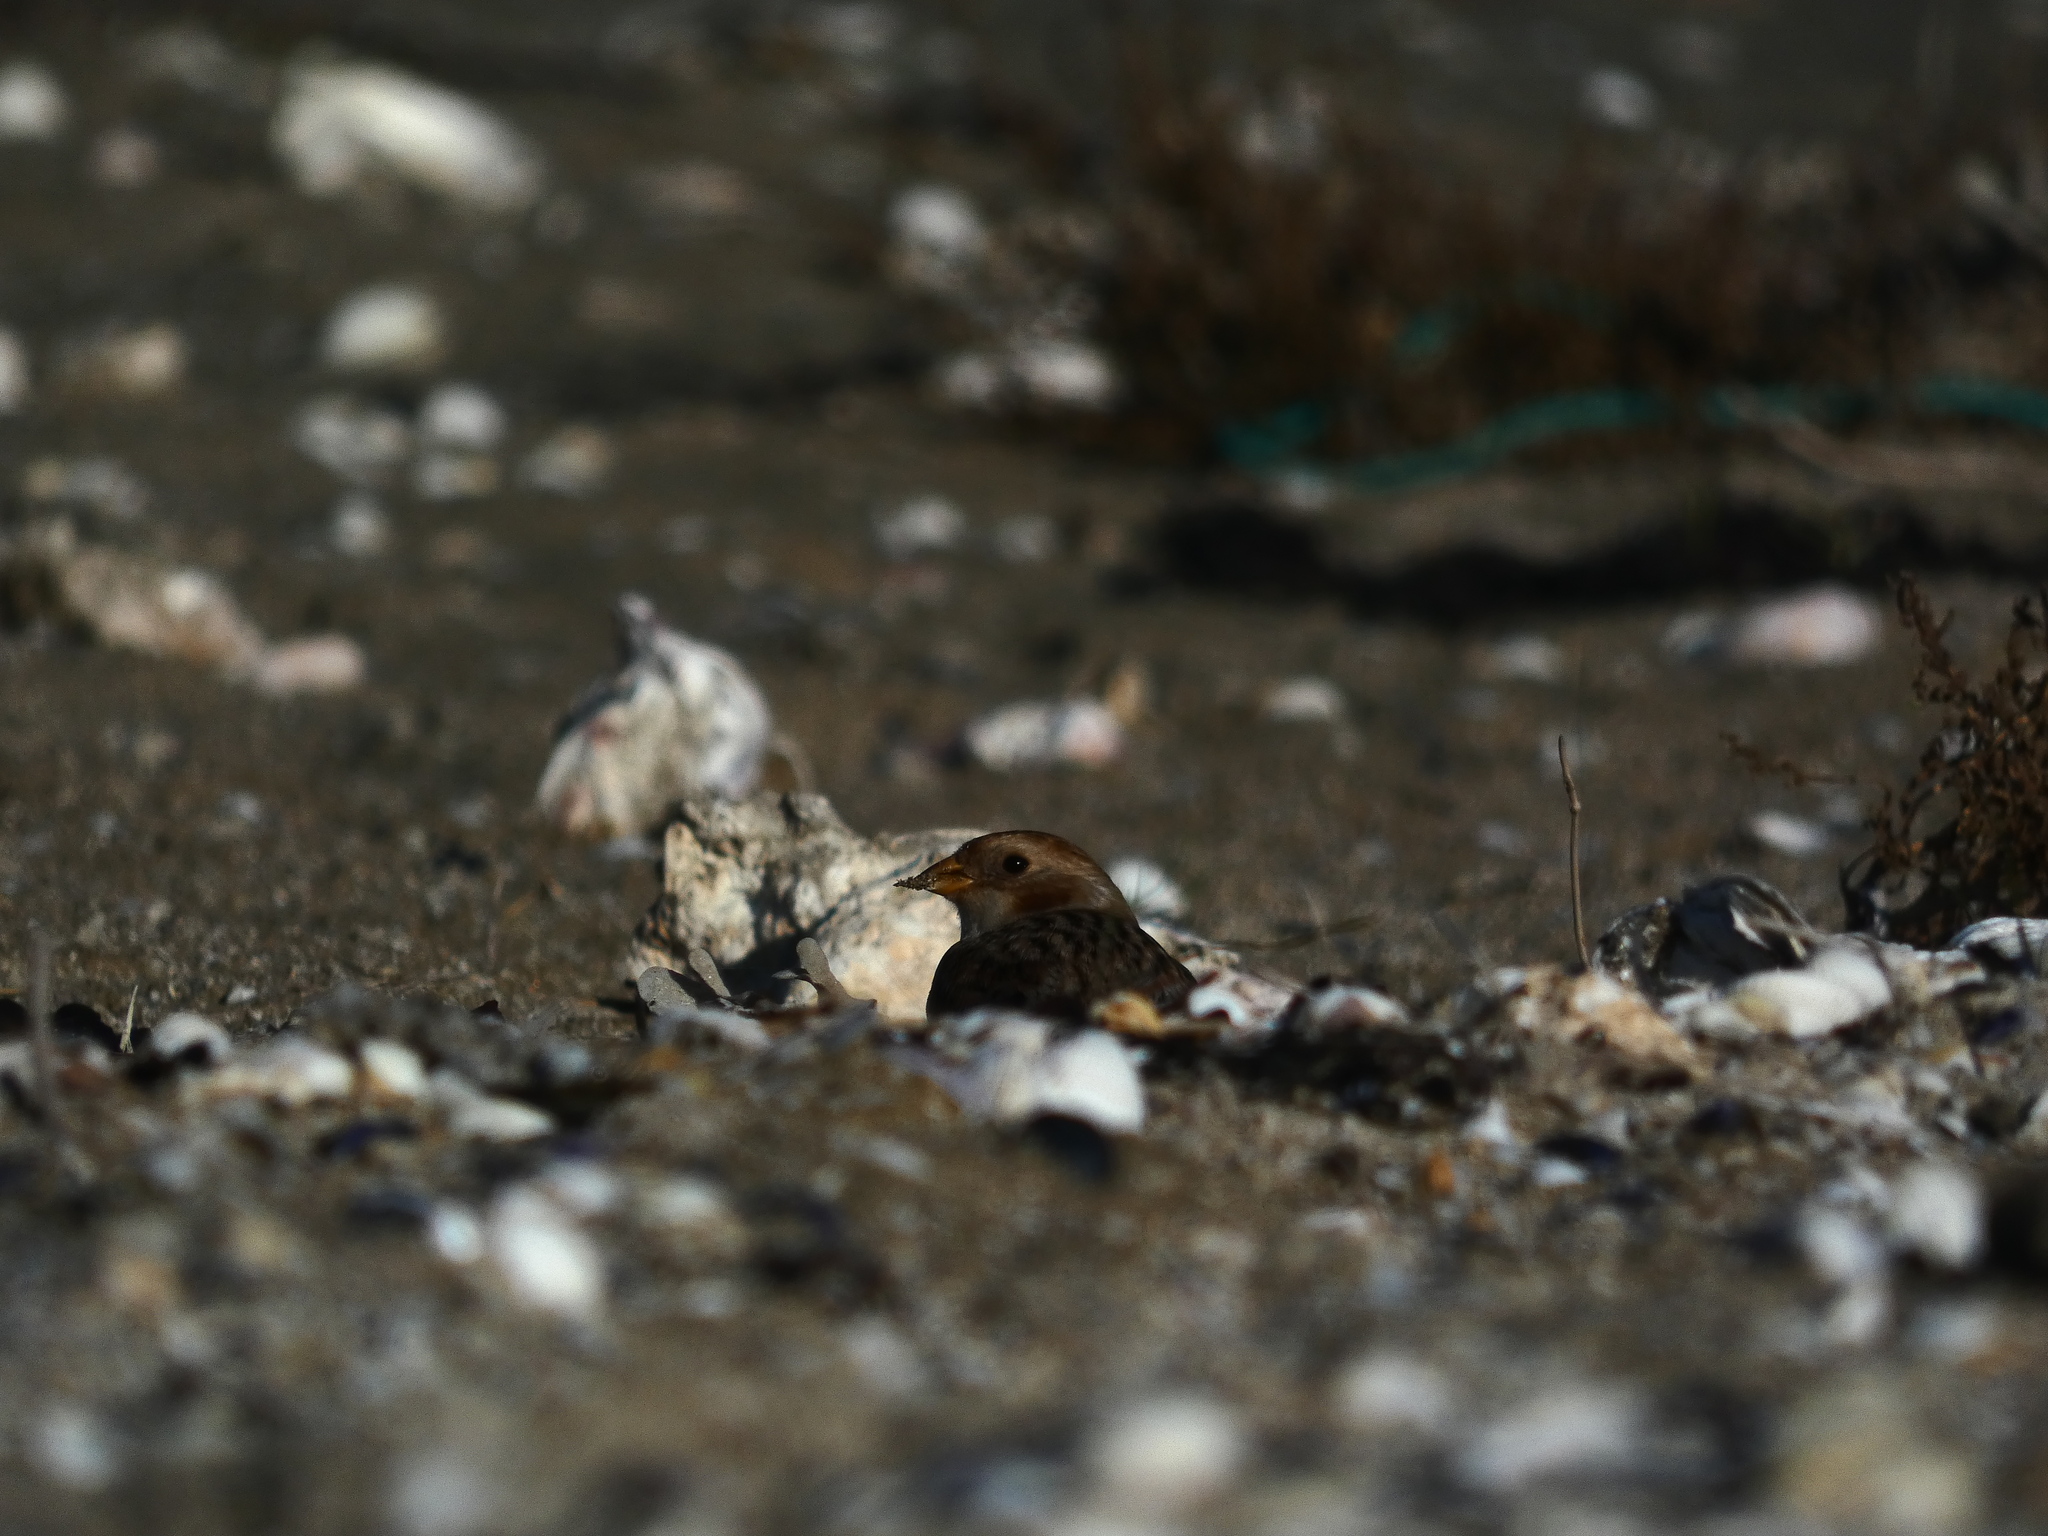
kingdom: Animalia
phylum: Chordata
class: Aves
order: Passeriformes
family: Calcariidae
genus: Plectrophenax
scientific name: Plectrophenax nivalis
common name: Snow bunting
